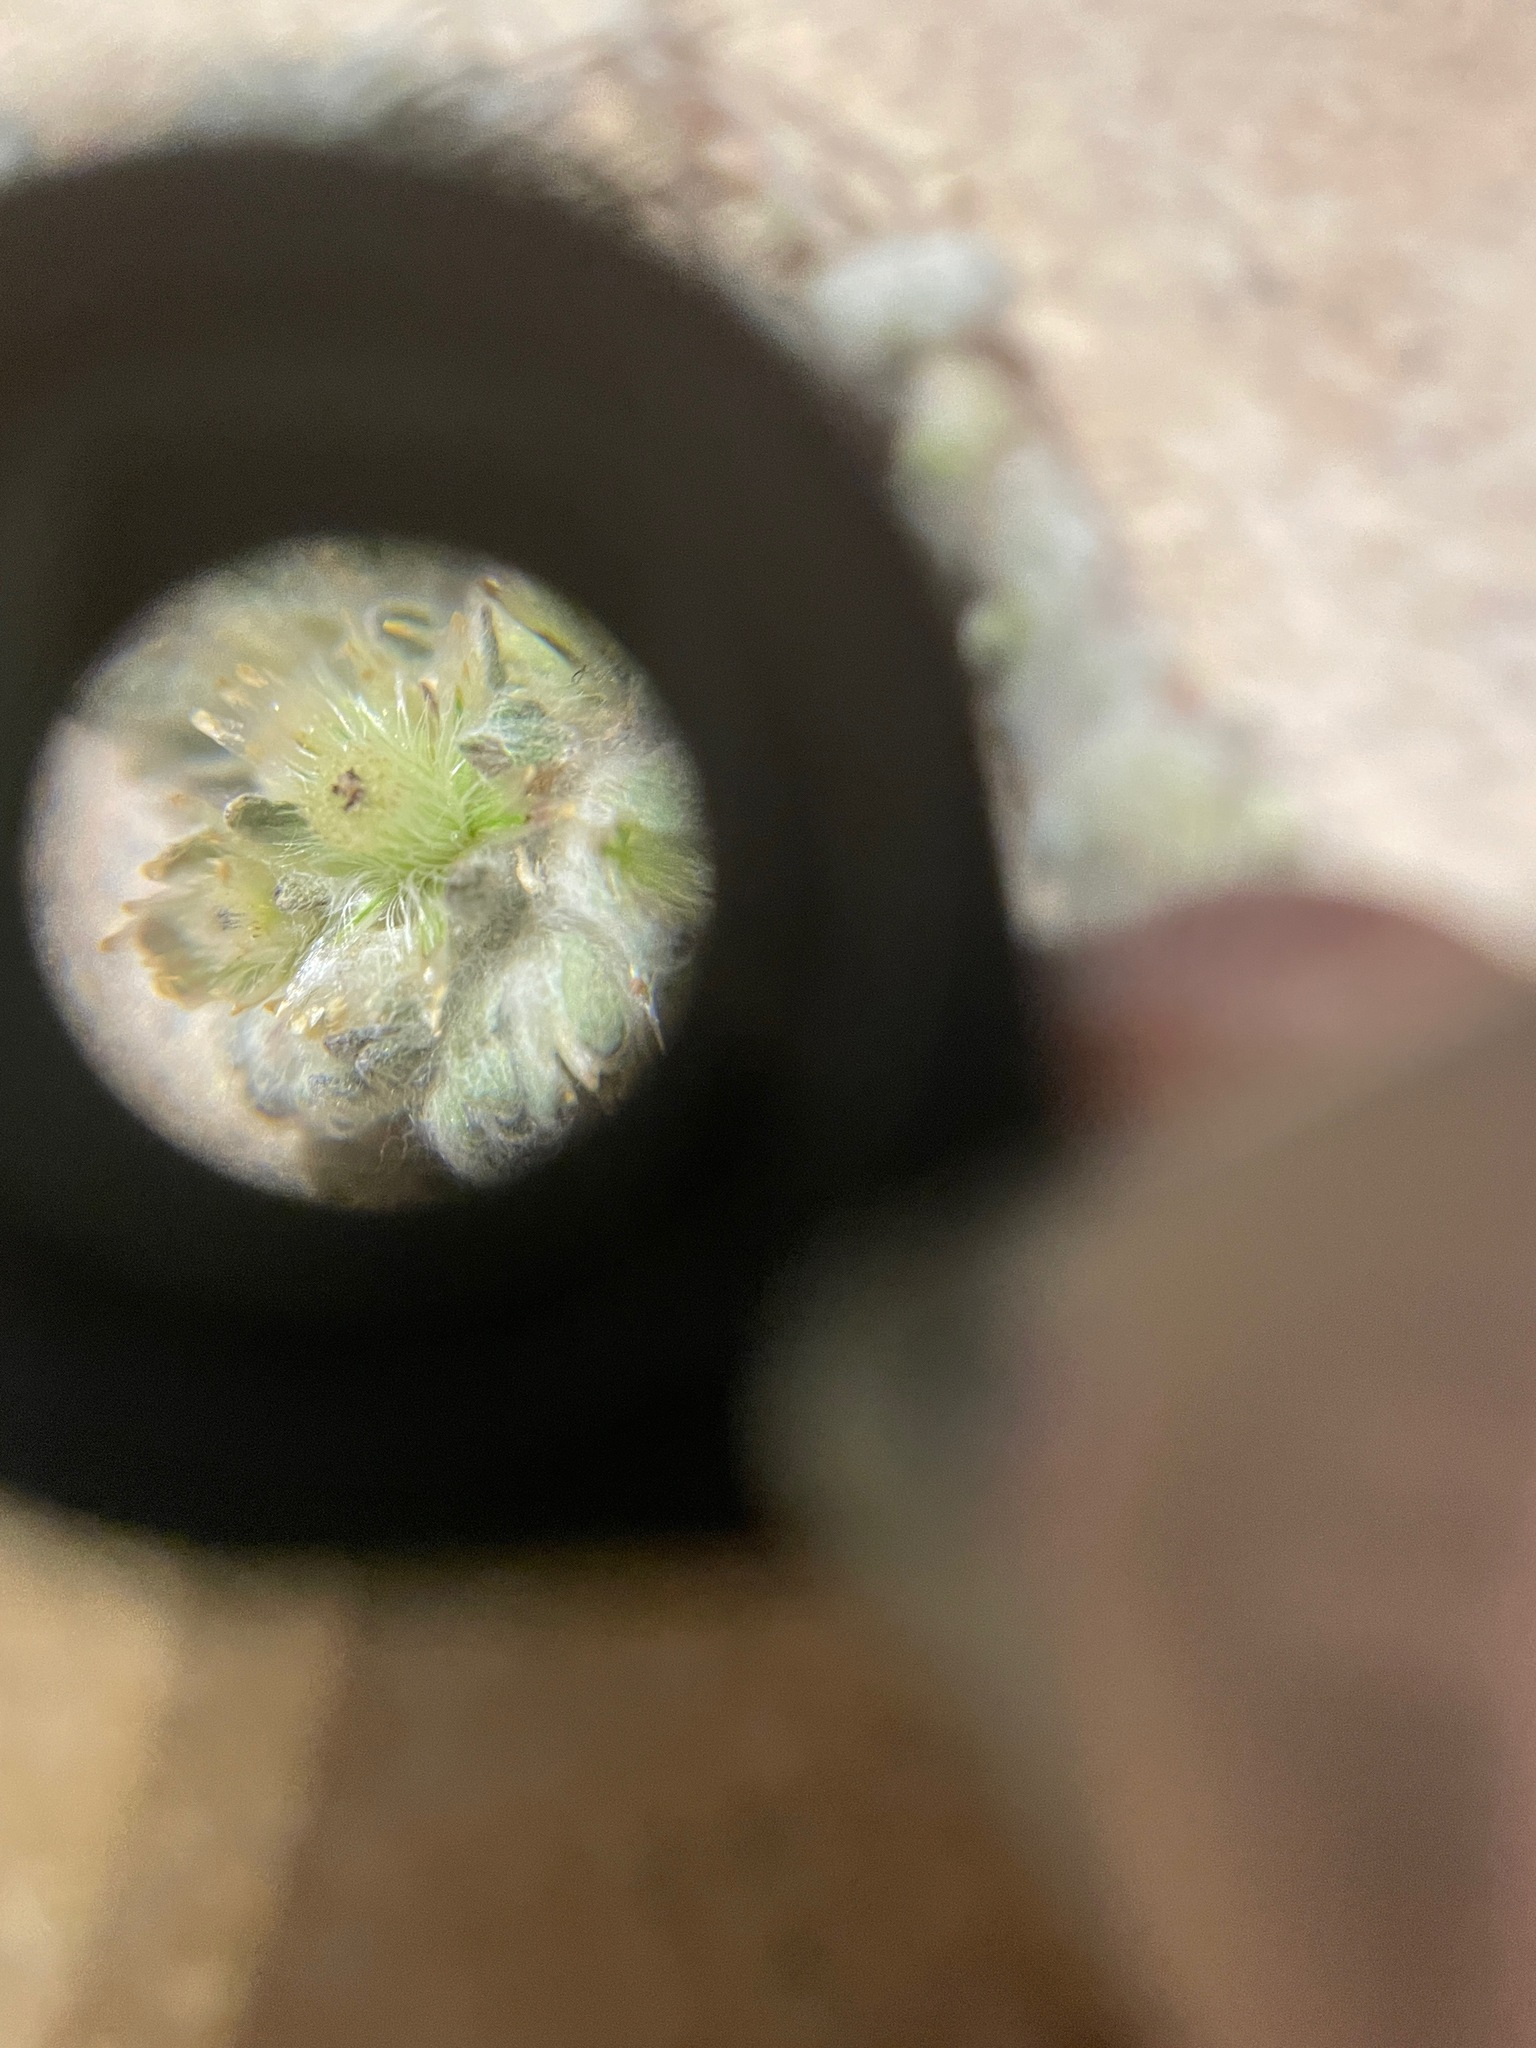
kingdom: Plantae
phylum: Tracheophyta
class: Magnoliopsida
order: Asterales
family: Asteraceae
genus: Lasiopogon
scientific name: Lasiopogon glomerulatus
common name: Green cat thorn
